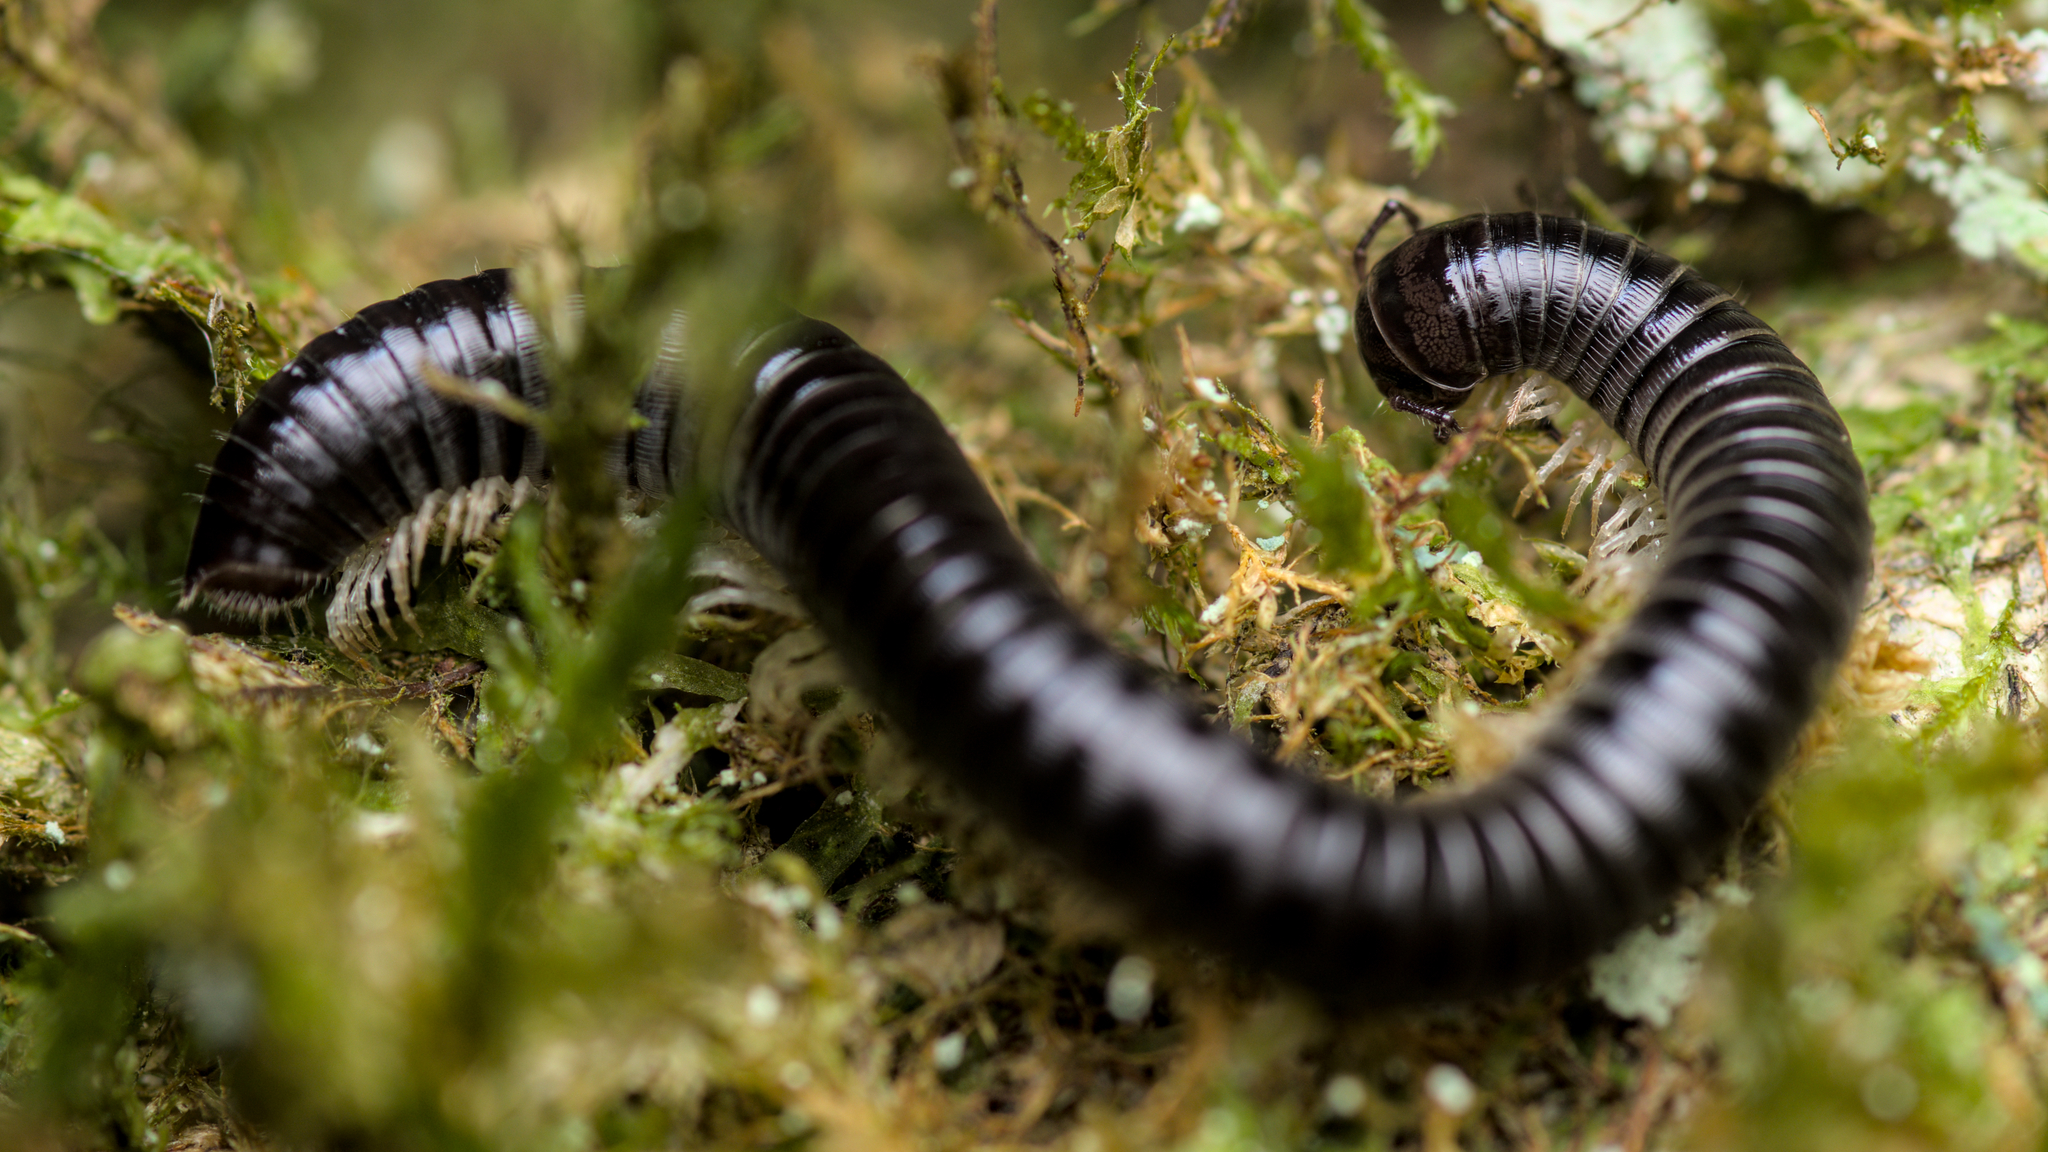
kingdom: Animalia
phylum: Arthropoda
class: Diplopoda
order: Julida
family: Julidae
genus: Tachypodoiulus
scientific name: Tachypodoiulus niger
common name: White-legged snake millipede
